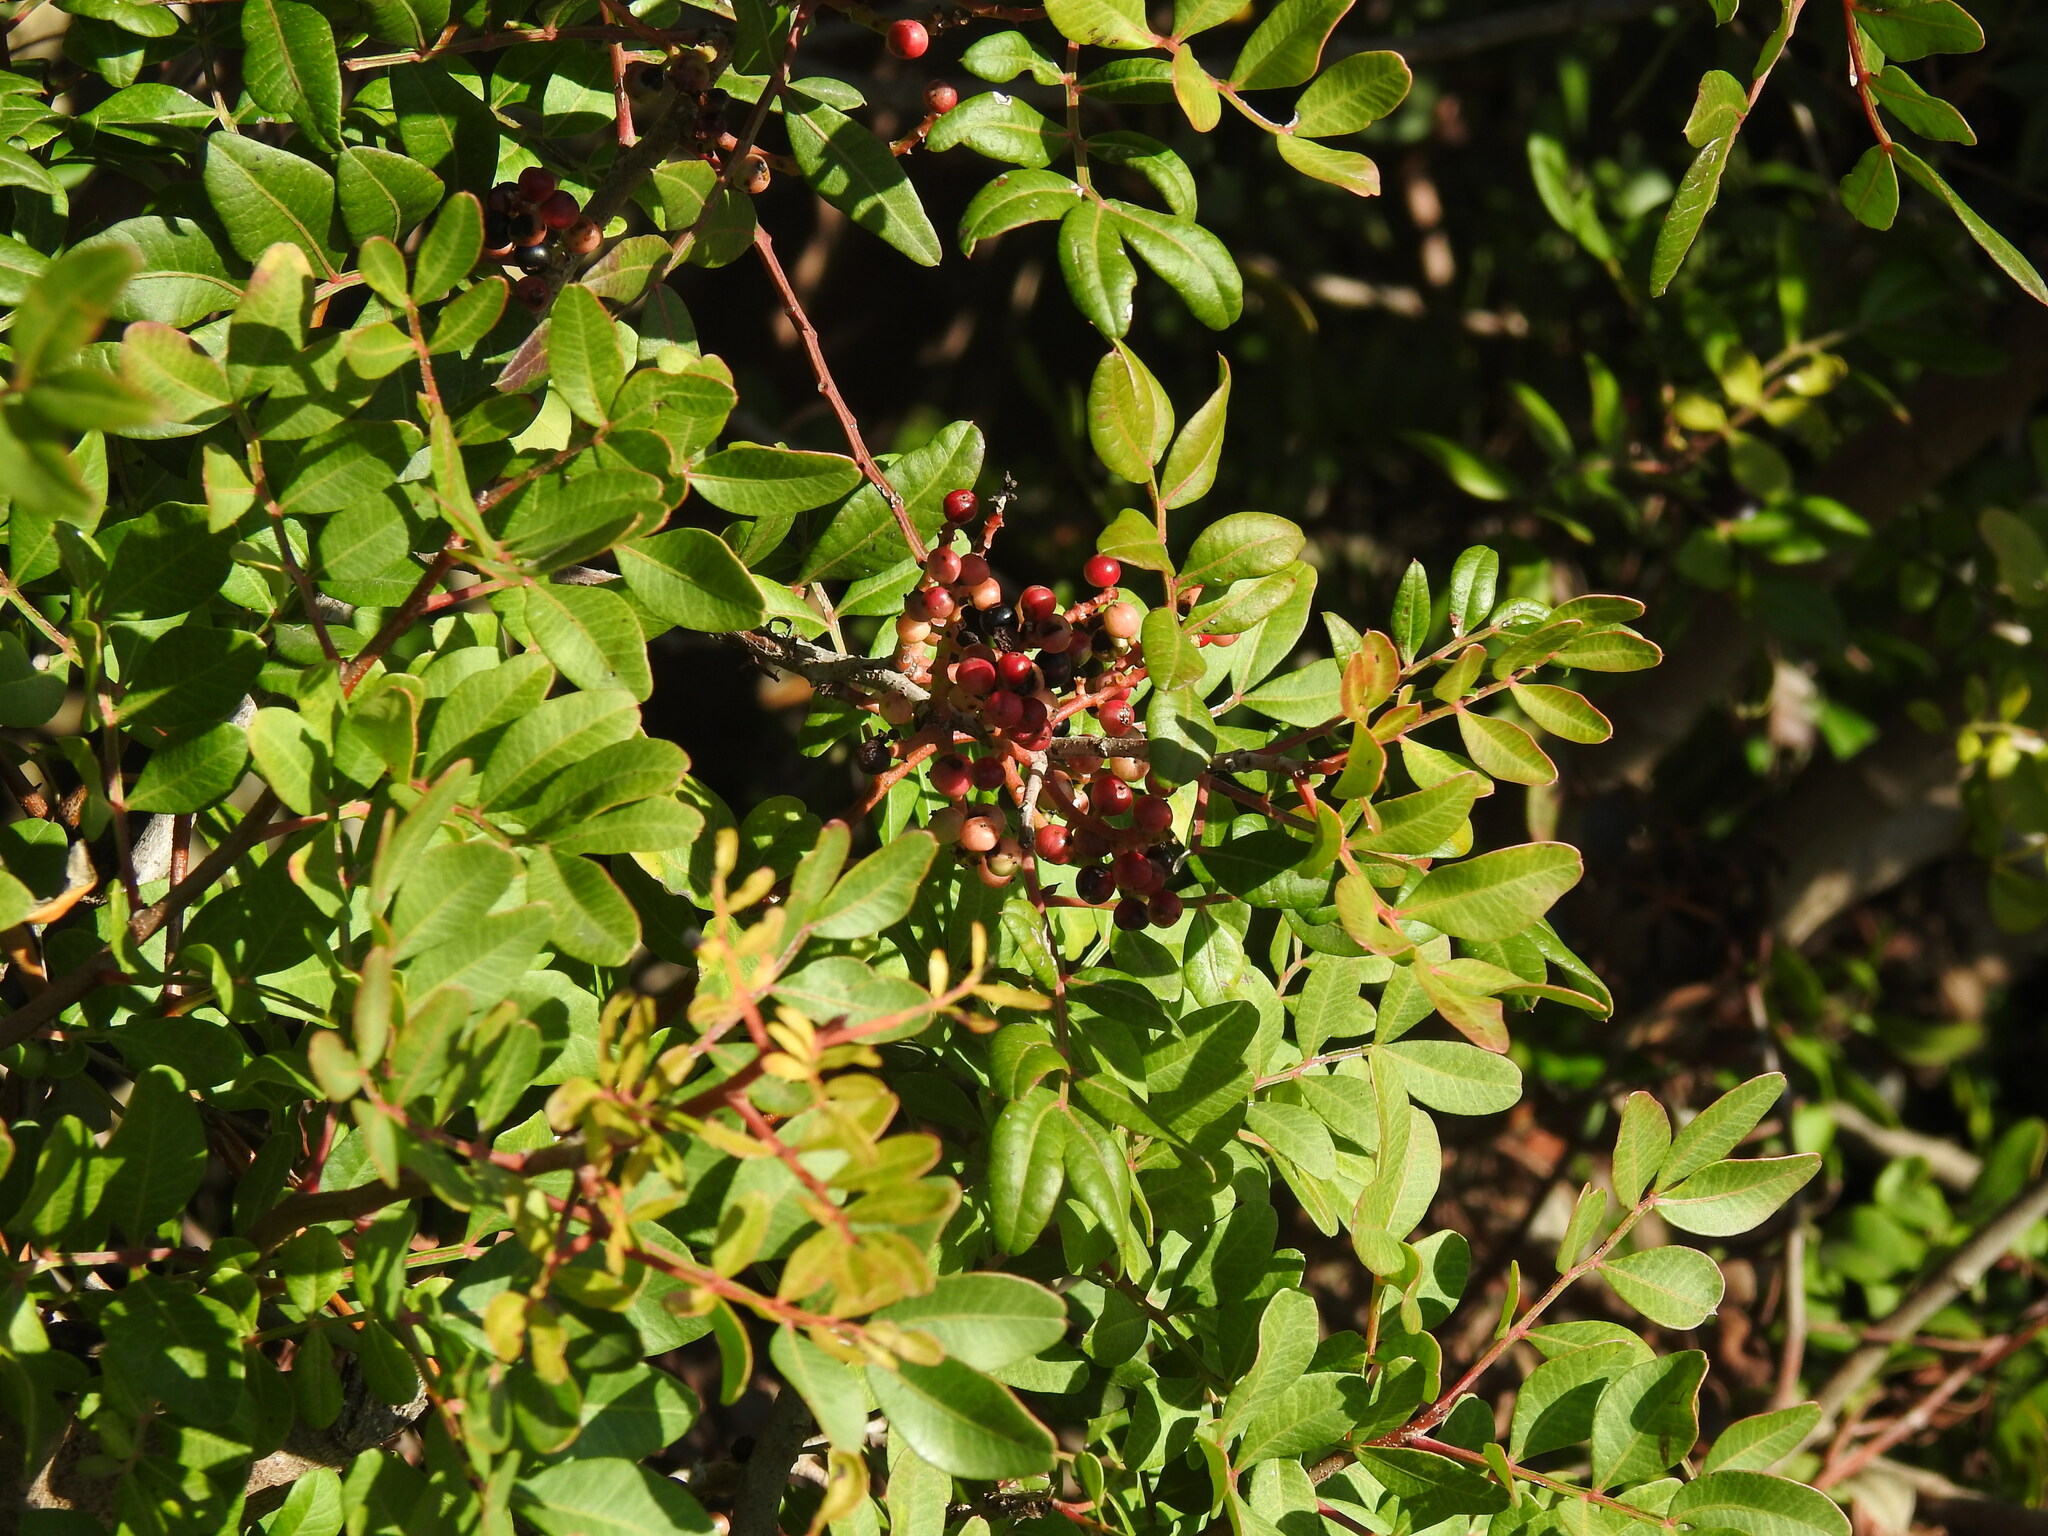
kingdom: Plantae
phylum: Tracheophyta
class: Magnoliopsida
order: Sapindales
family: Anacardiaceae
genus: Pistacia
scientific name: Pistacia lentiscus
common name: Lentisk
